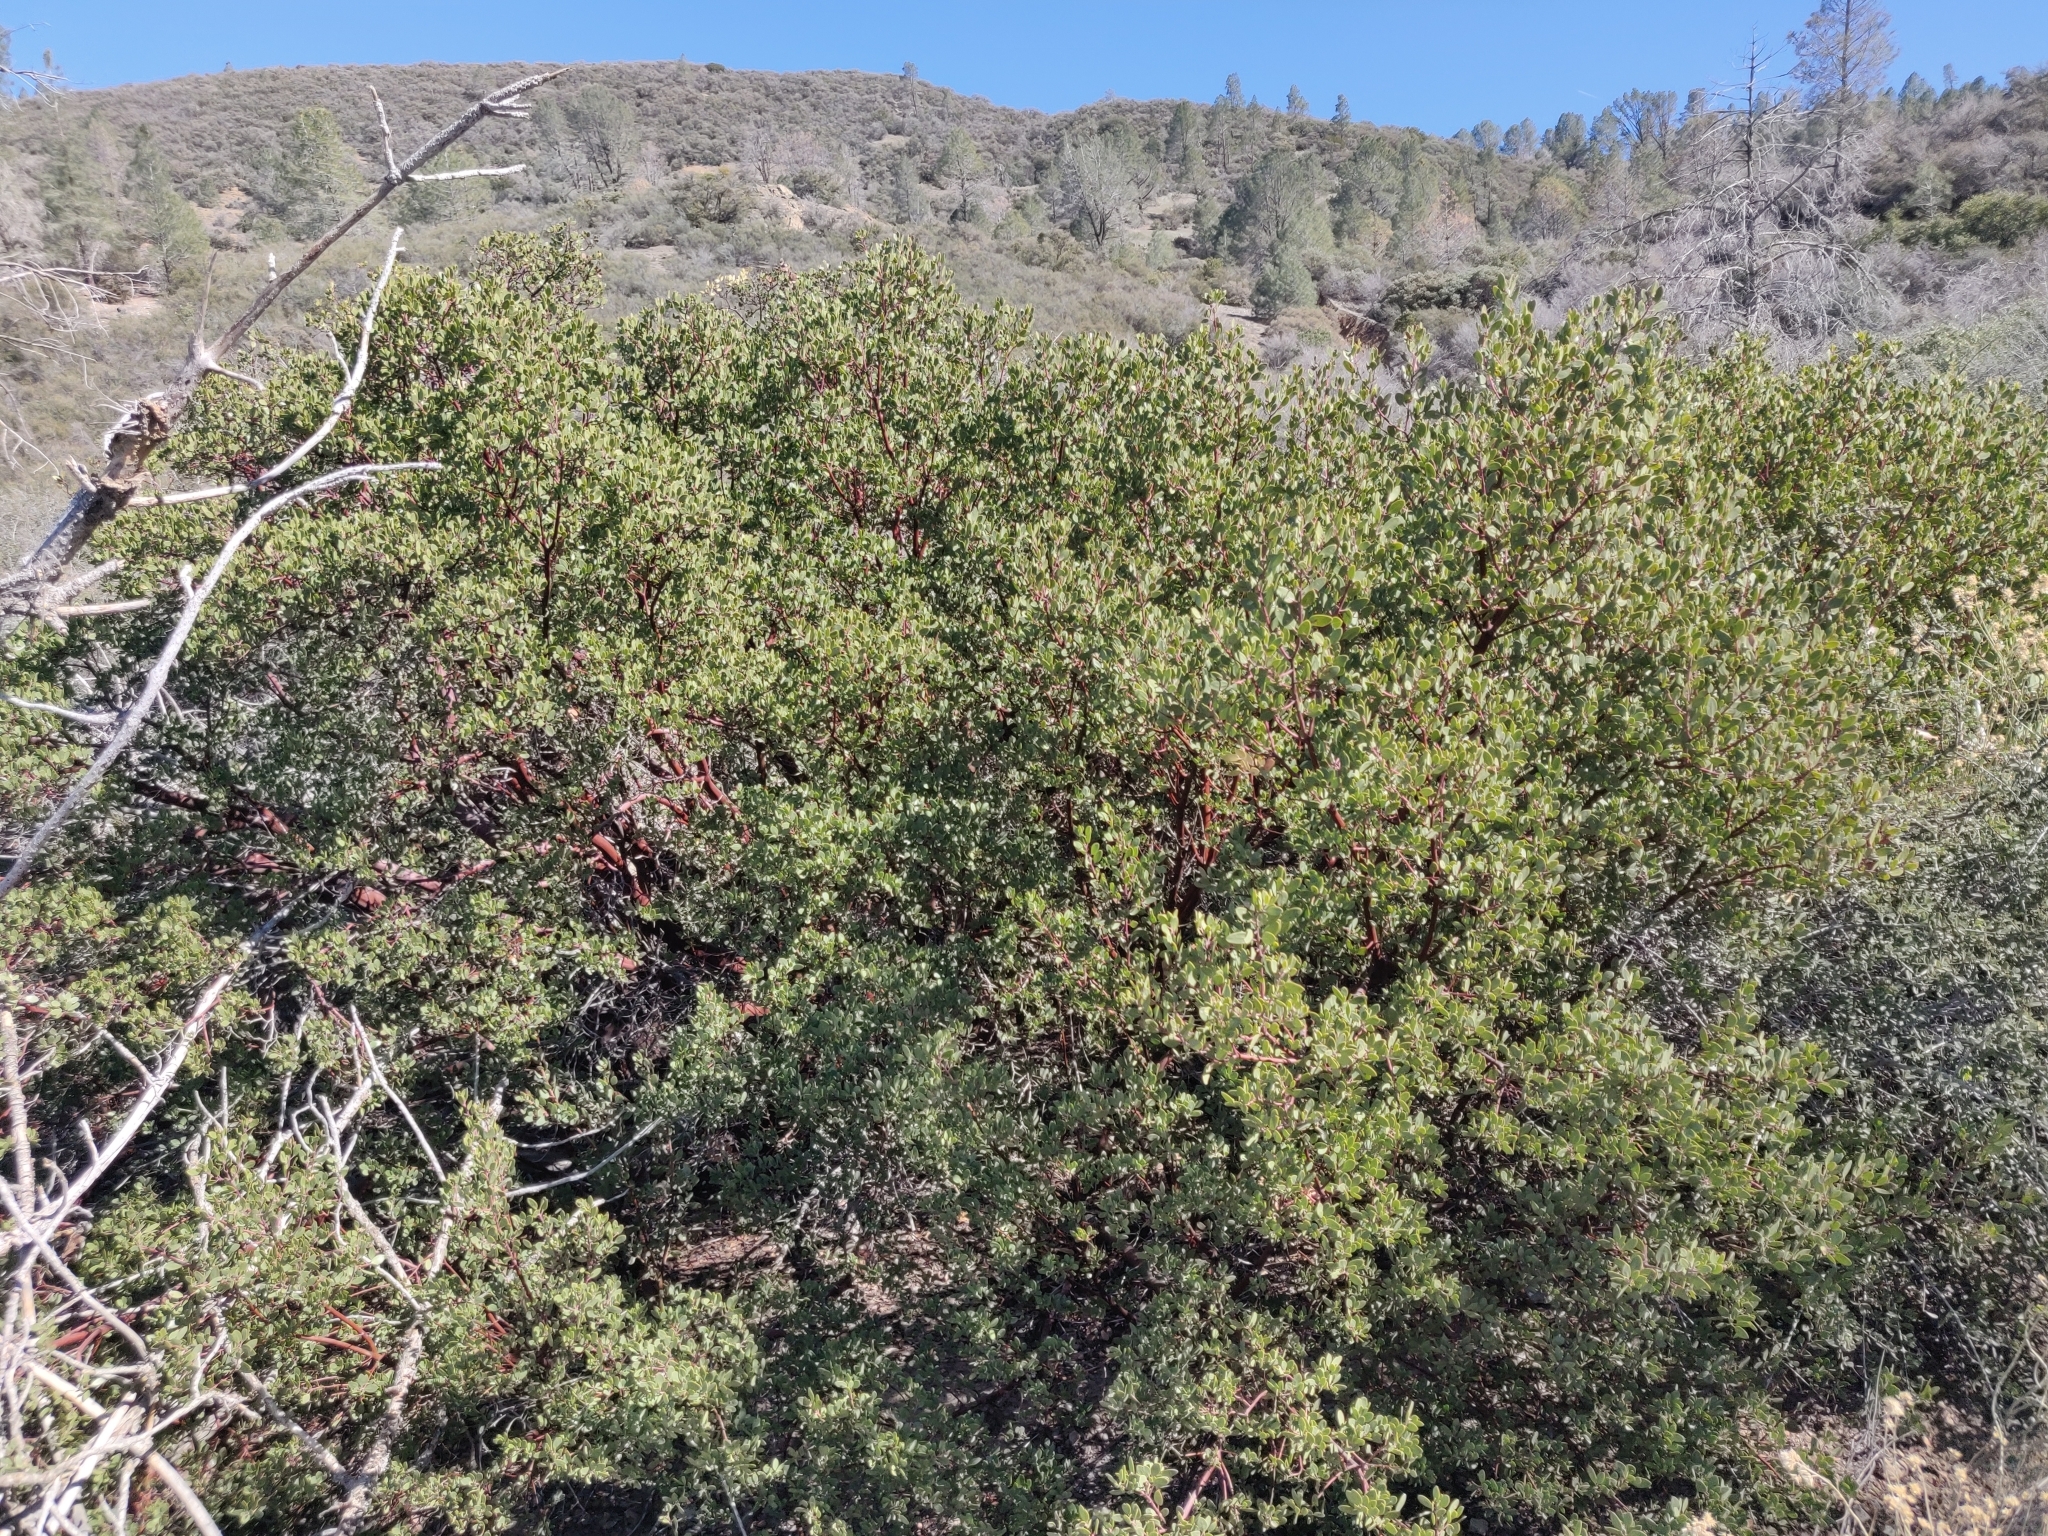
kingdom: Plantae
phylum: Tracheophyta
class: Magnoliopsida
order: Ericales
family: Ericaceae
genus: Arctostaphylos
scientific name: Arctostaphylos pungens
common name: Mexican manzanita
